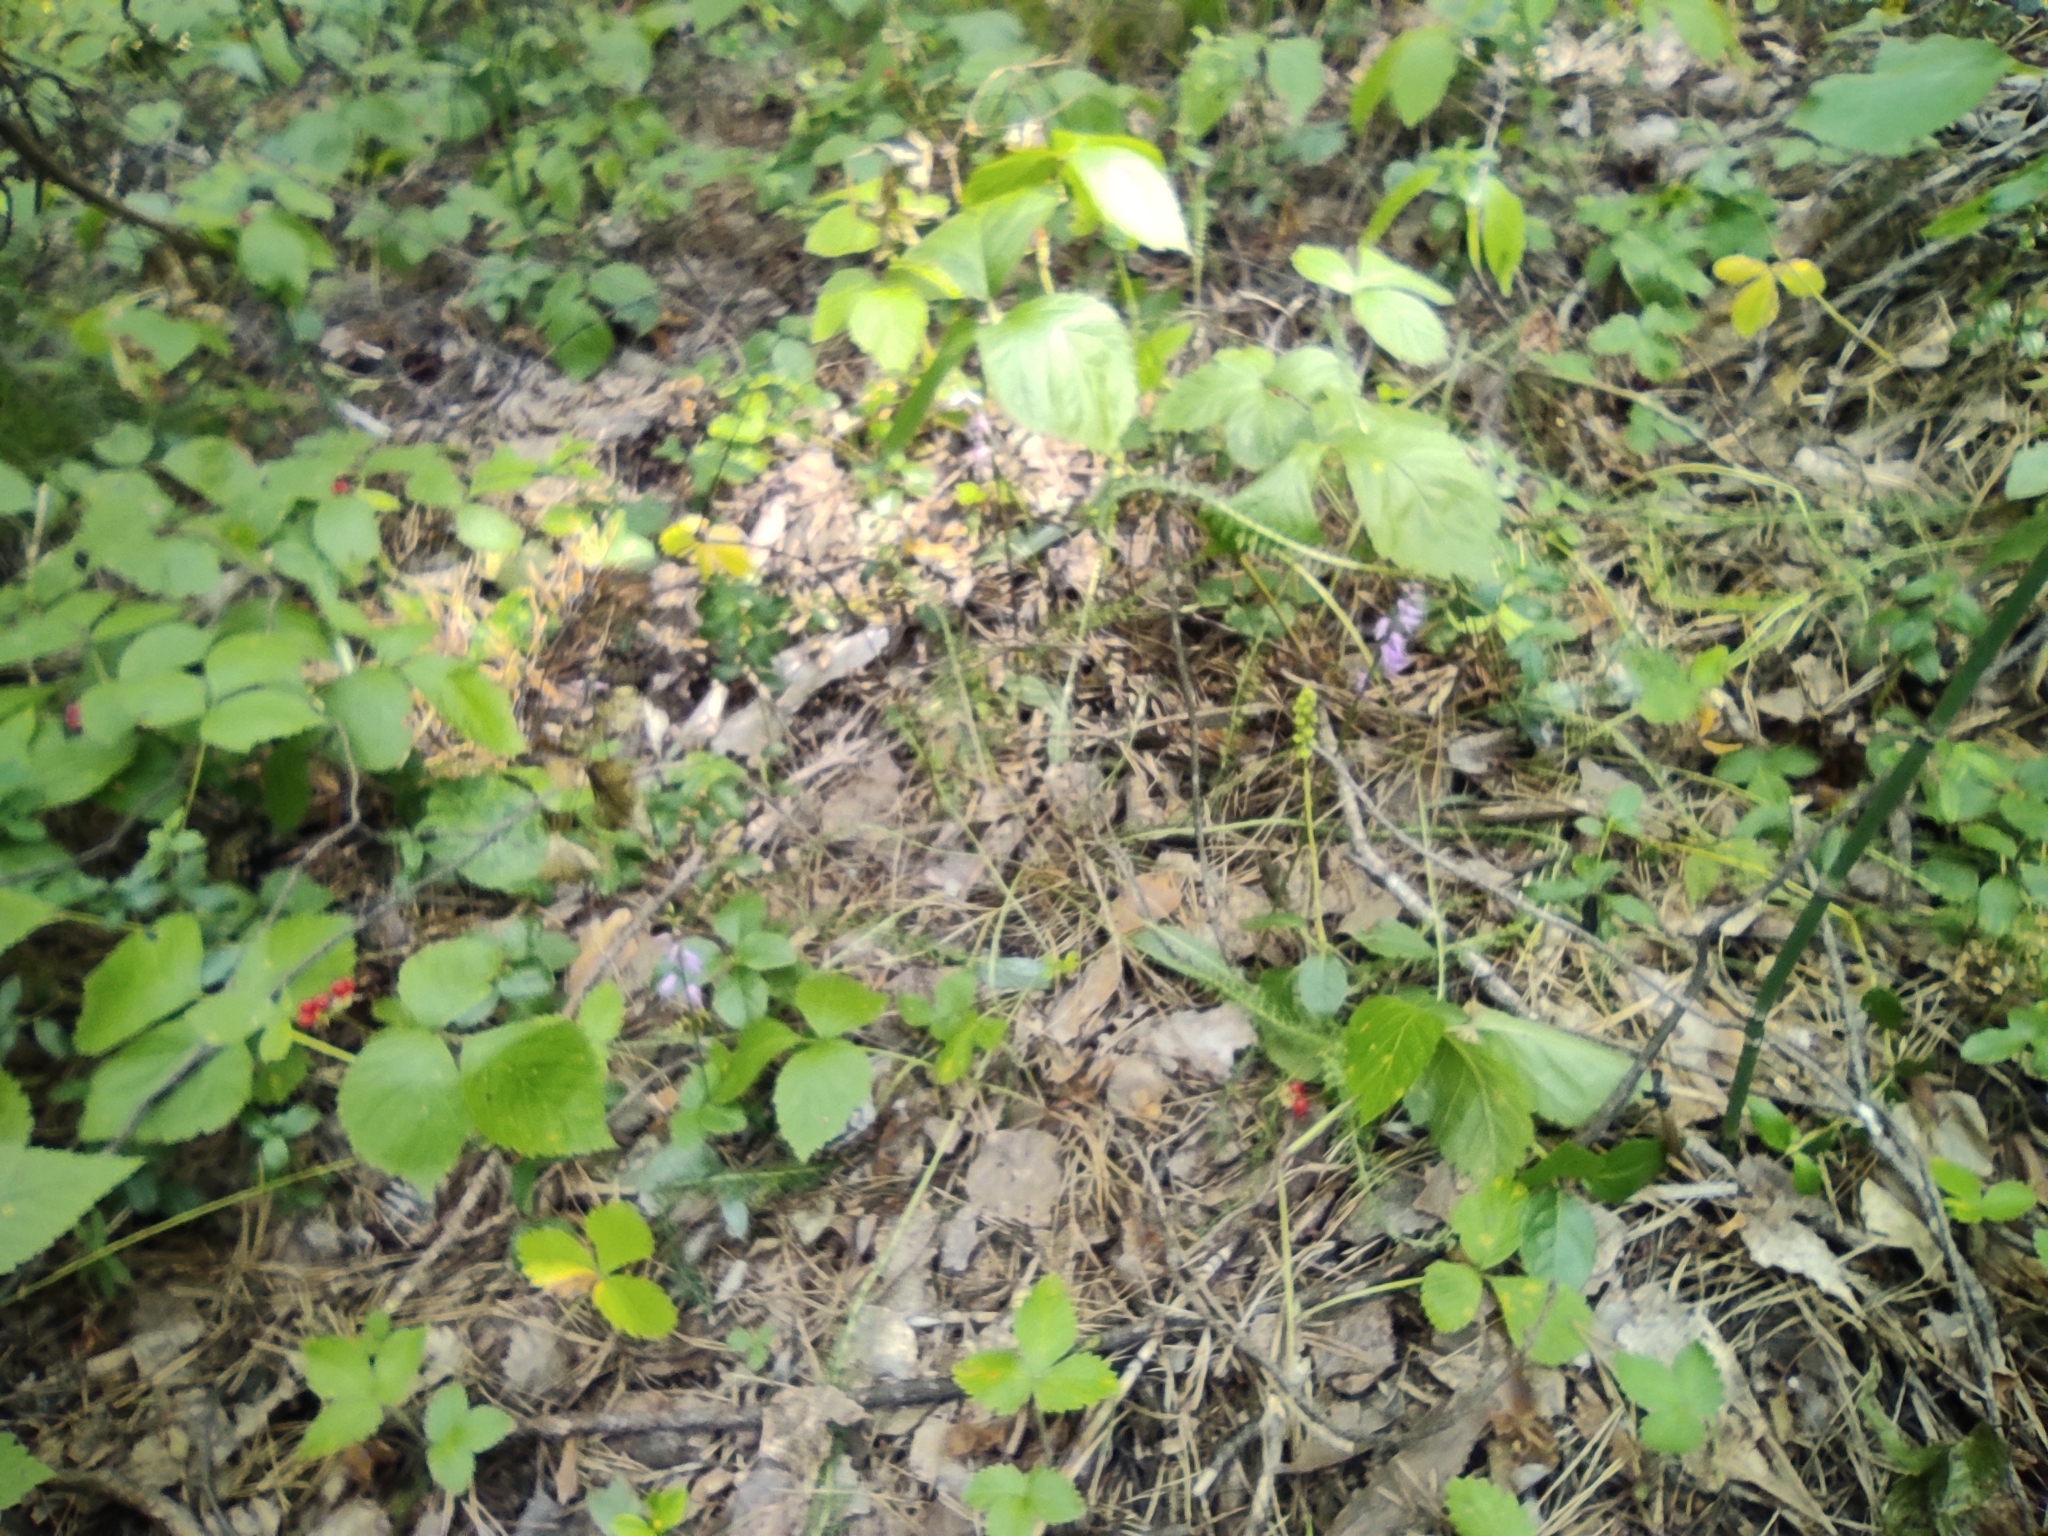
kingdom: Plantae
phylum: Tracheophyta
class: Liliopsida
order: Asparagales
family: Orchidaceae
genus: Hemipilia
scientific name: Hemipilia cucullata
